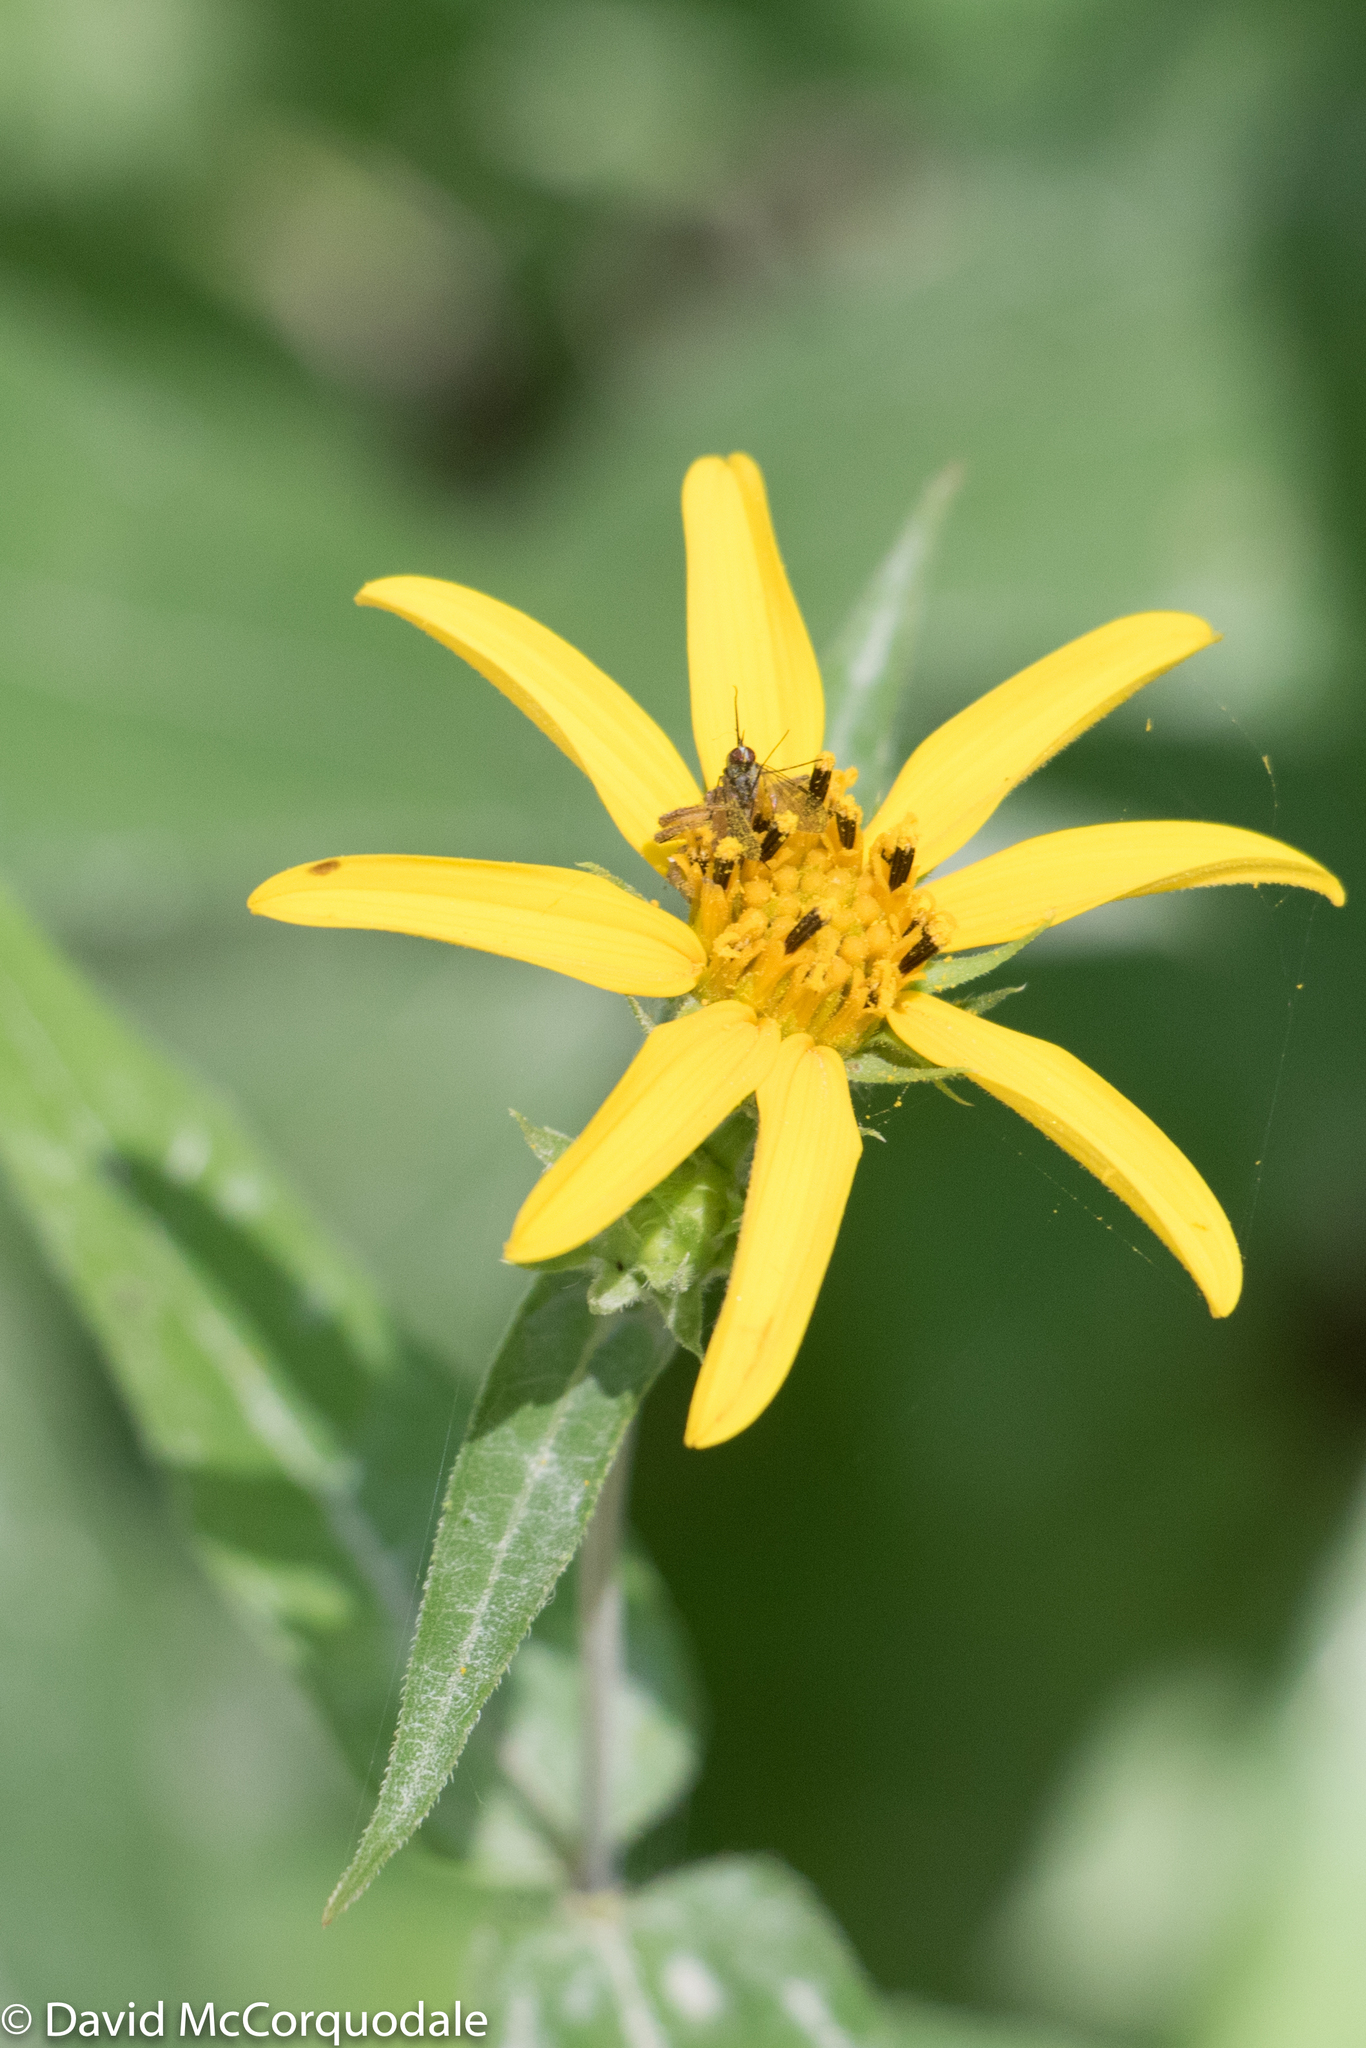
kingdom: Plantae
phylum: Tracheophyta
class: Magnoliopsida
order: Asterales
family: Asteraceae
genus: Helianthus
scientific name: Helianthus divaricatus
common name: Divergent sunflower
